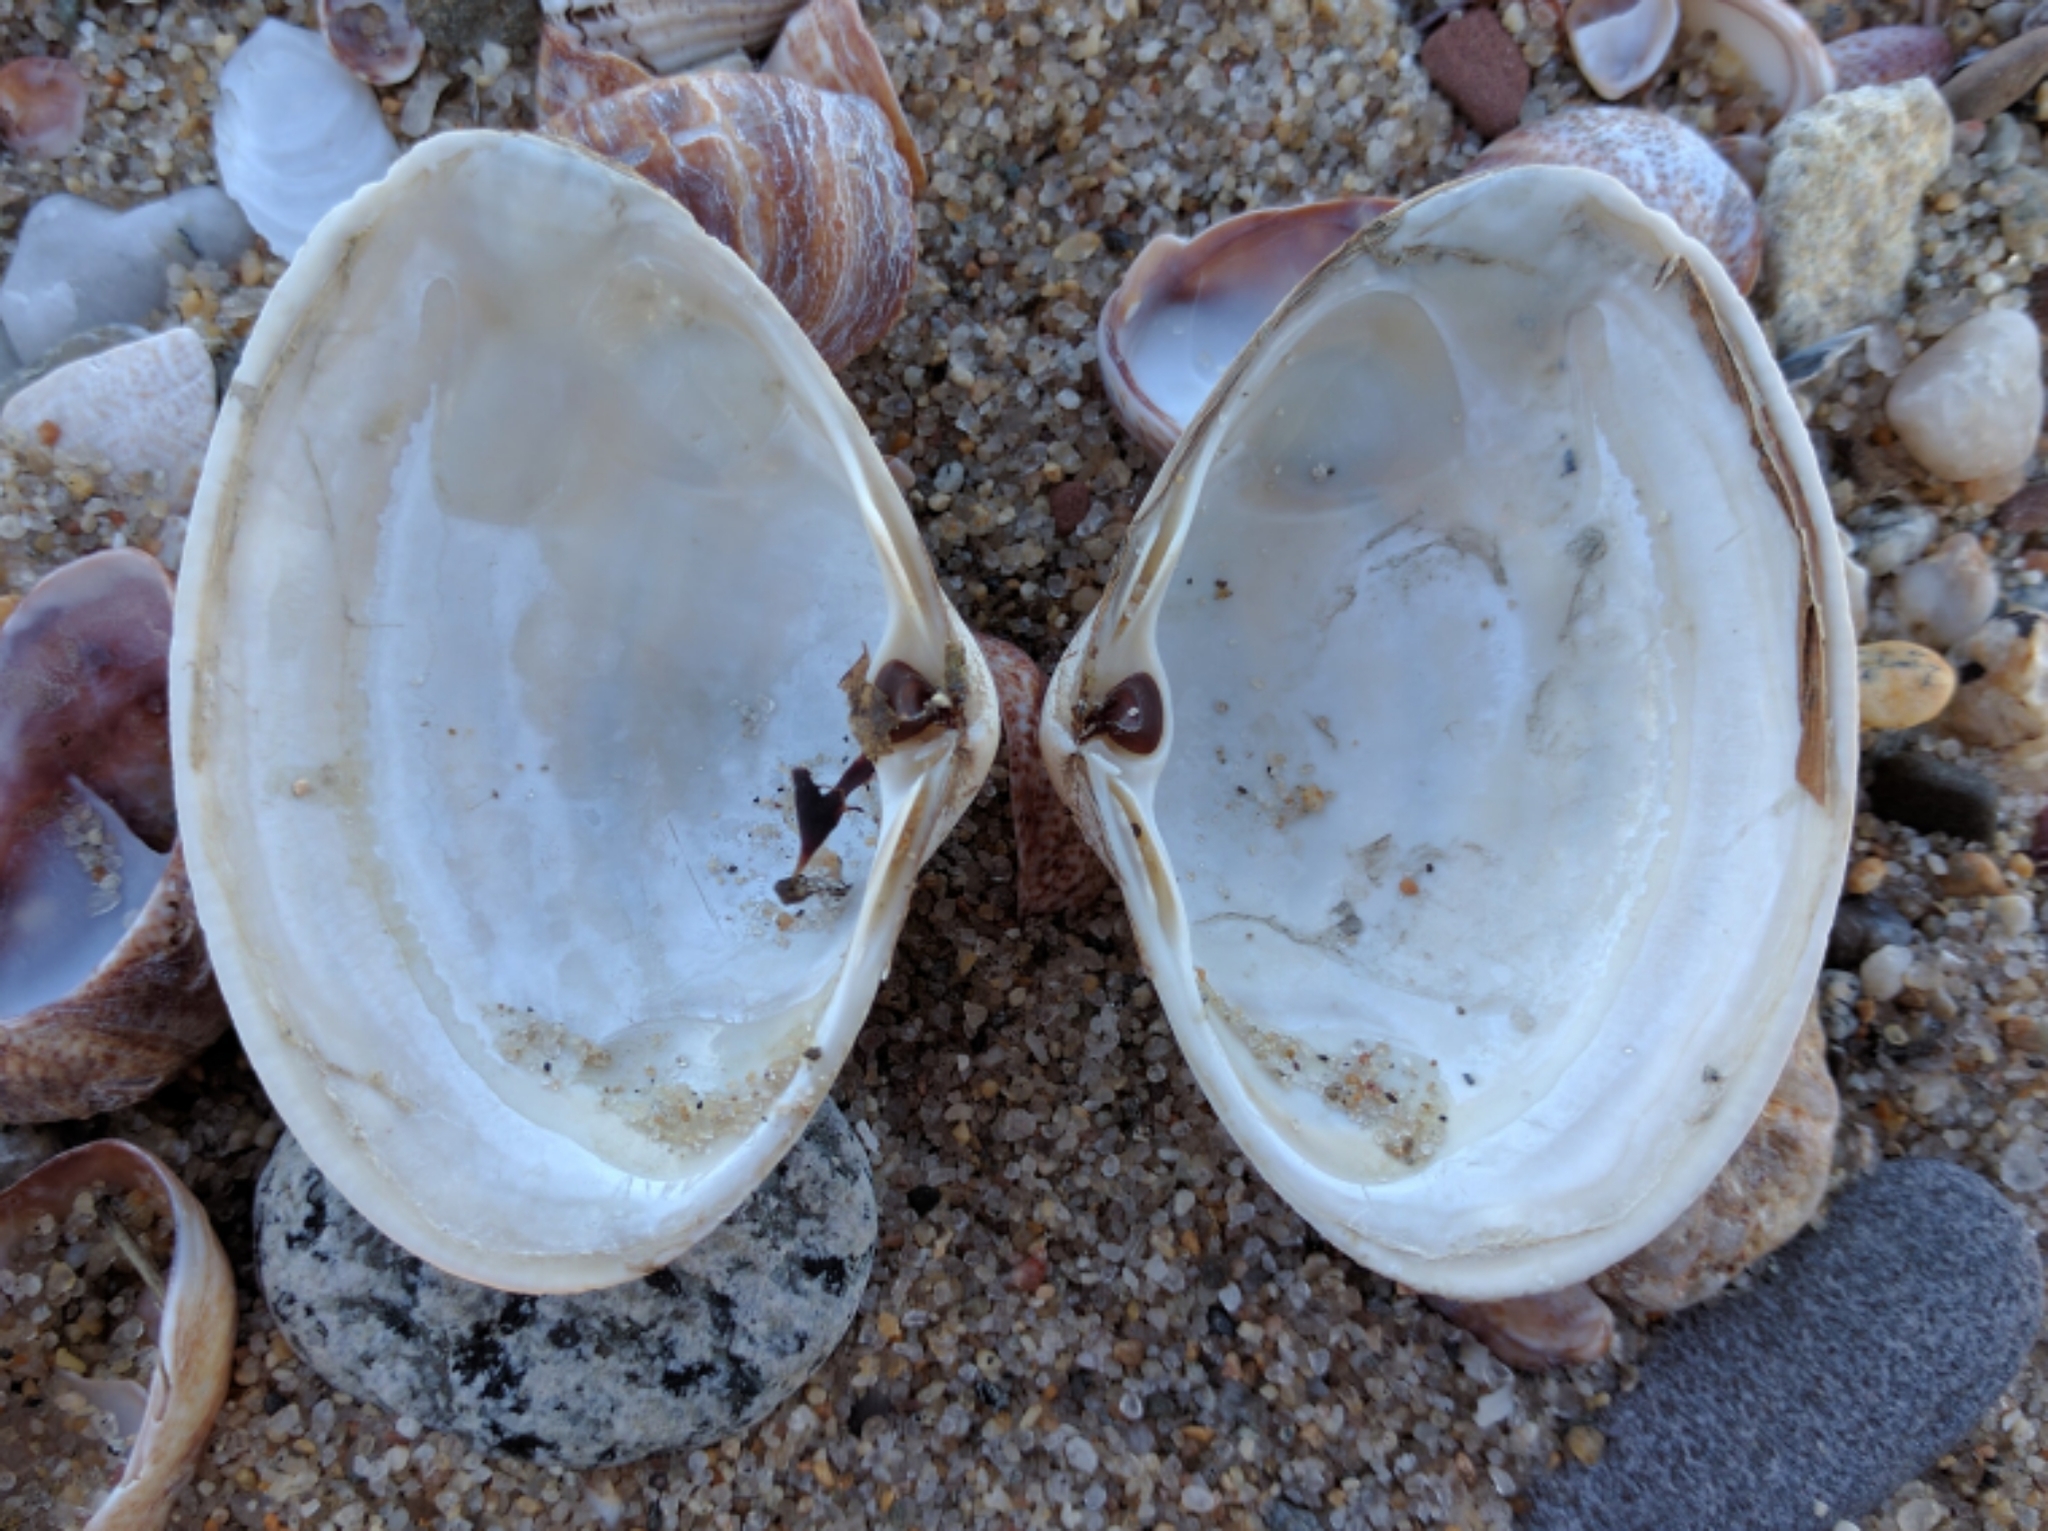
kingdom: Animalia
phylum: Mollusca
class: Bivalvia
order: Venerida
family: Mactridae
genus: Spisula
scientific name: Spisula solidissima
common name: Atlantic surf clam
